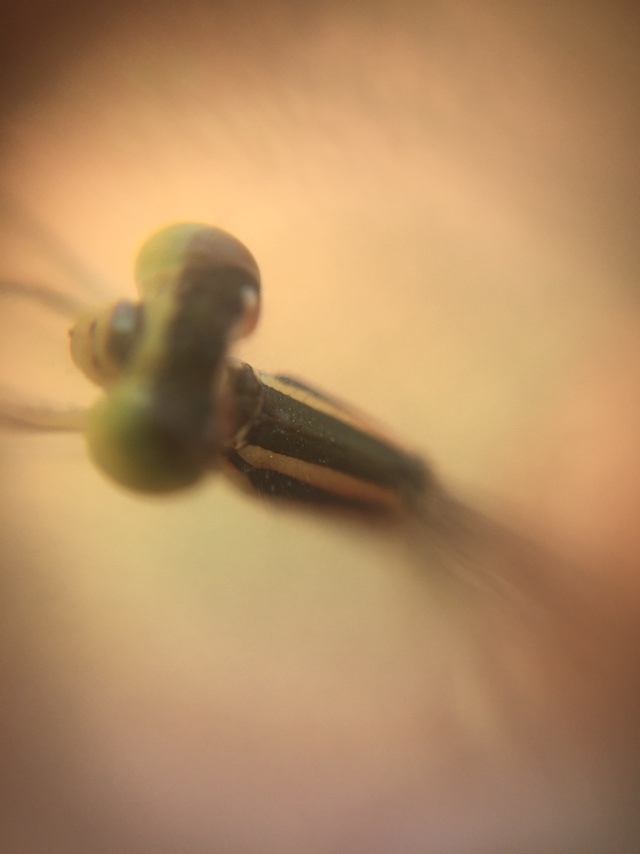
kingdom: Animalia
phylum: Arthropoda
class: Insecta
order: Odonata
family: Coenagrionidae
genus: Ischnura
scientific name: Ischnura rubilio
